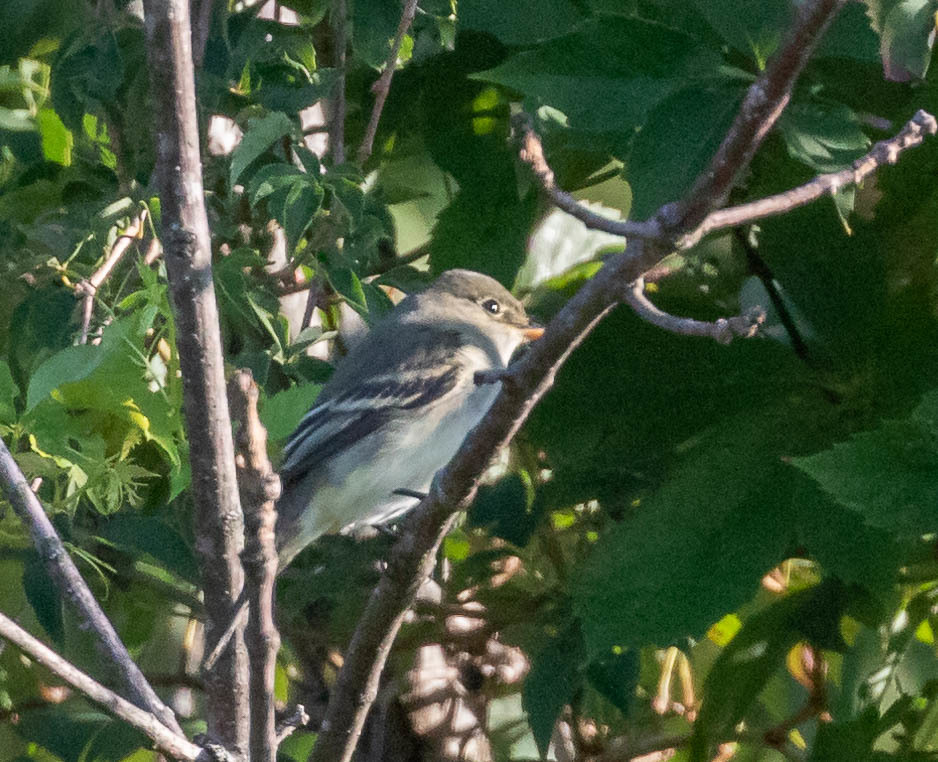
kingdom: Animalia
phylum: Chordata
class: Aves
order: Passeriformes
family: Tyrannidae
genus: Contopus
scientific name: Contopus virens
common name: Eastern wood-pewee
